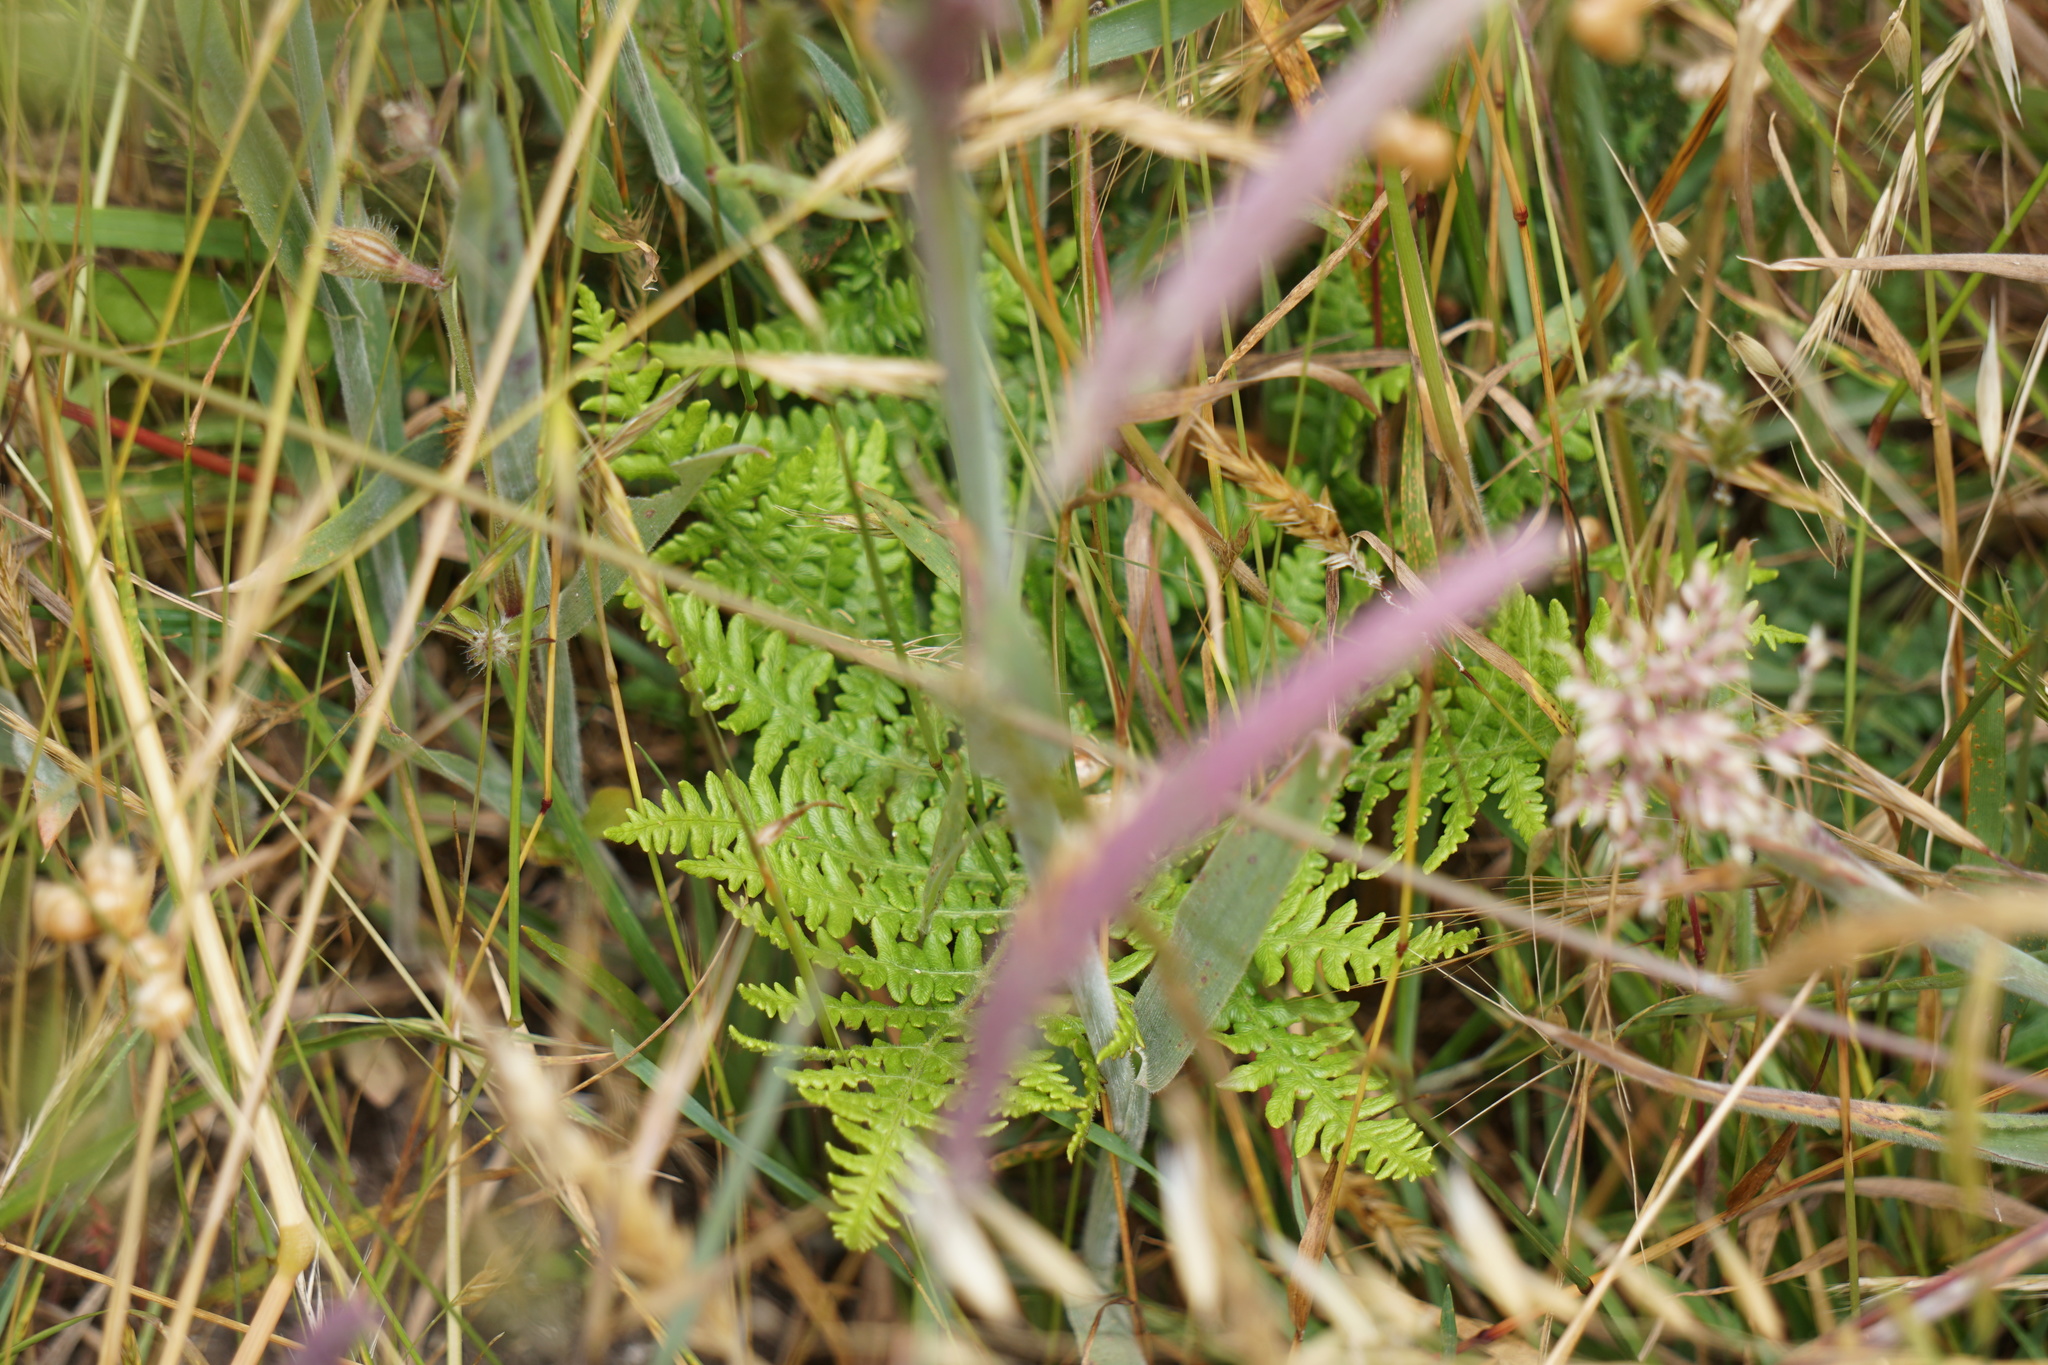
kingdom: Plantae
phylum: Tracheophyta
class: Polypodiopsida
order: Polypodiales
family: Dennstaedtiaceae
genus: Pteridium
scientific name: Pteridium aquilinum
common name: Bracken
